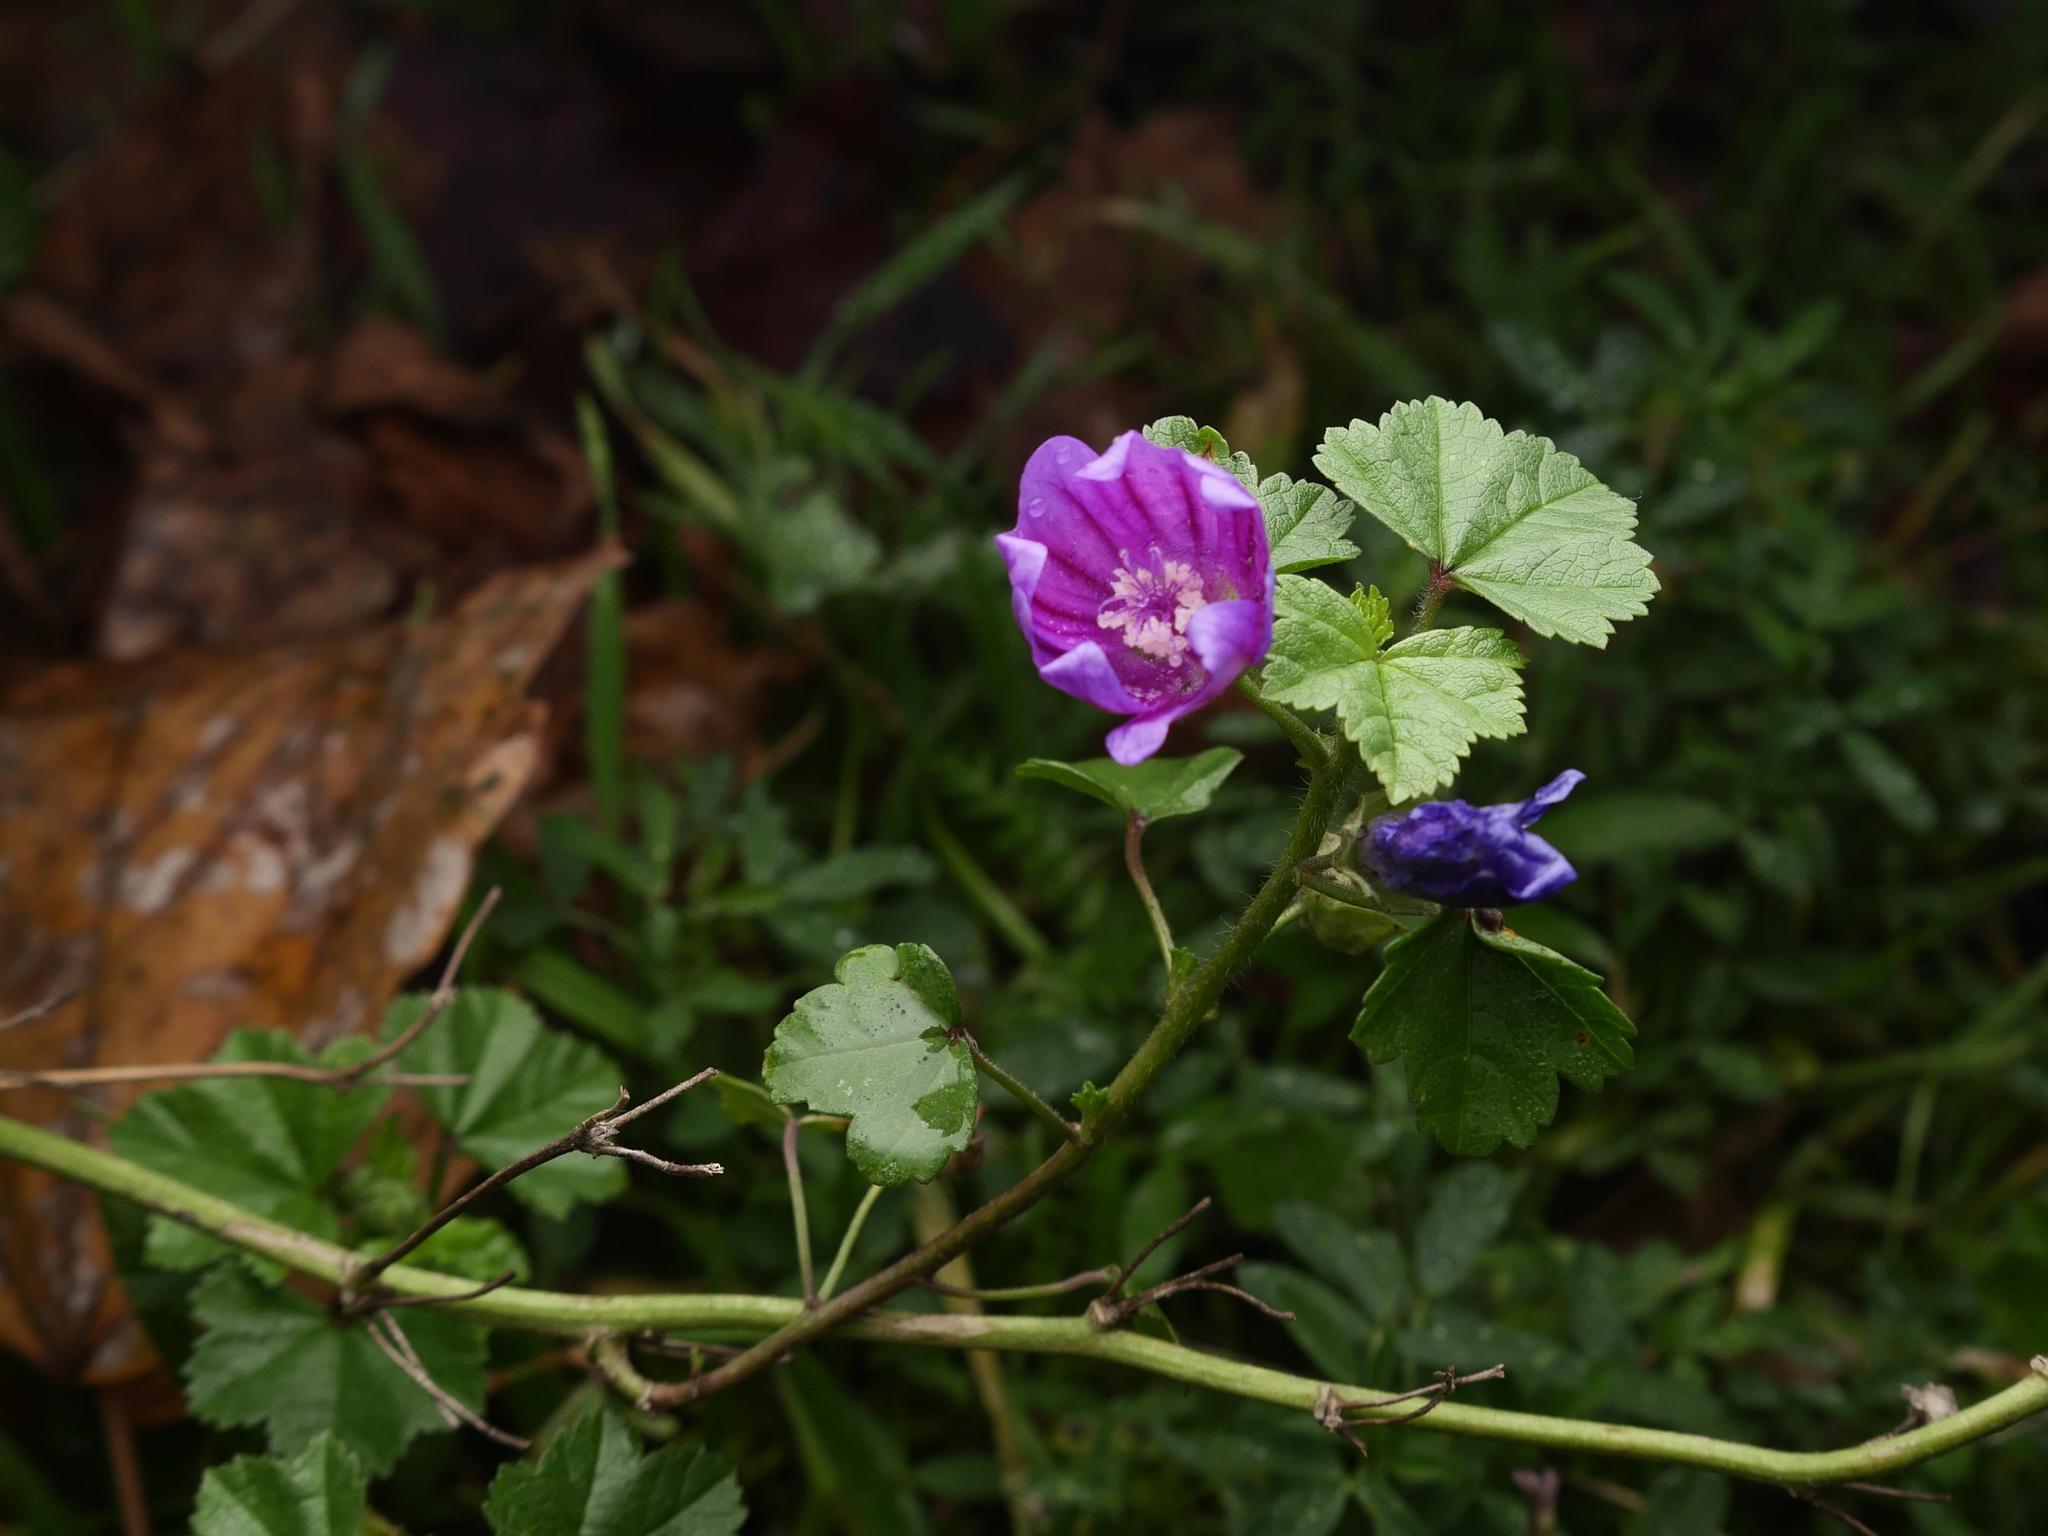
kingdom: Plantae
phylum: Tracheophyta
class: Magnoliopsida
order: Malvales
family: Malvaceae
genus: Malva
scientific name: Malva sylvestris
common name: Common mallow
